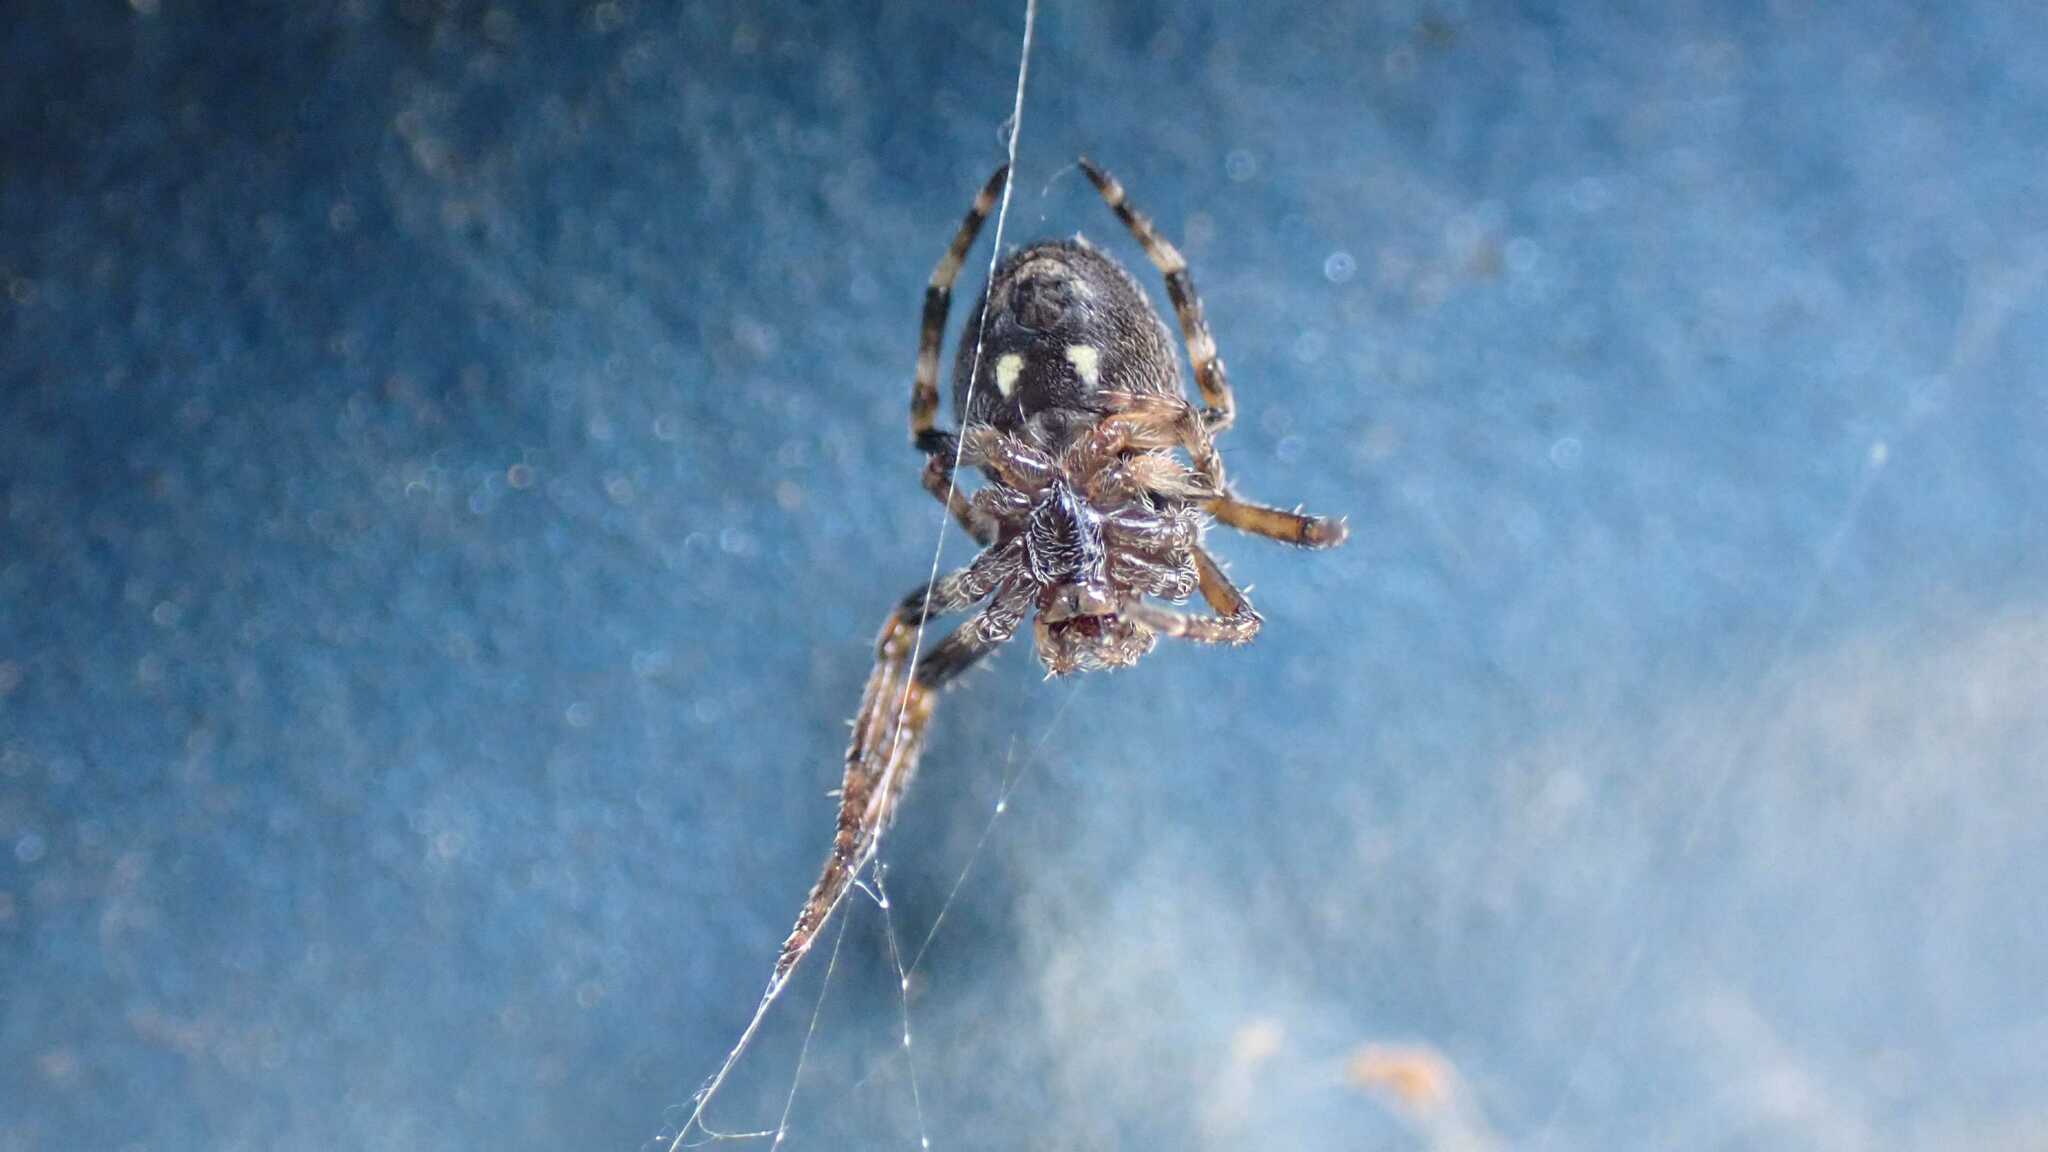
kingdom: Animalia
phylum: Arthropoda
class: Arachnida
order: Araneae
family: Araneidae
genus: Nuctenea
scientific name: Nuctenea umbratica
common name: Toad spider
